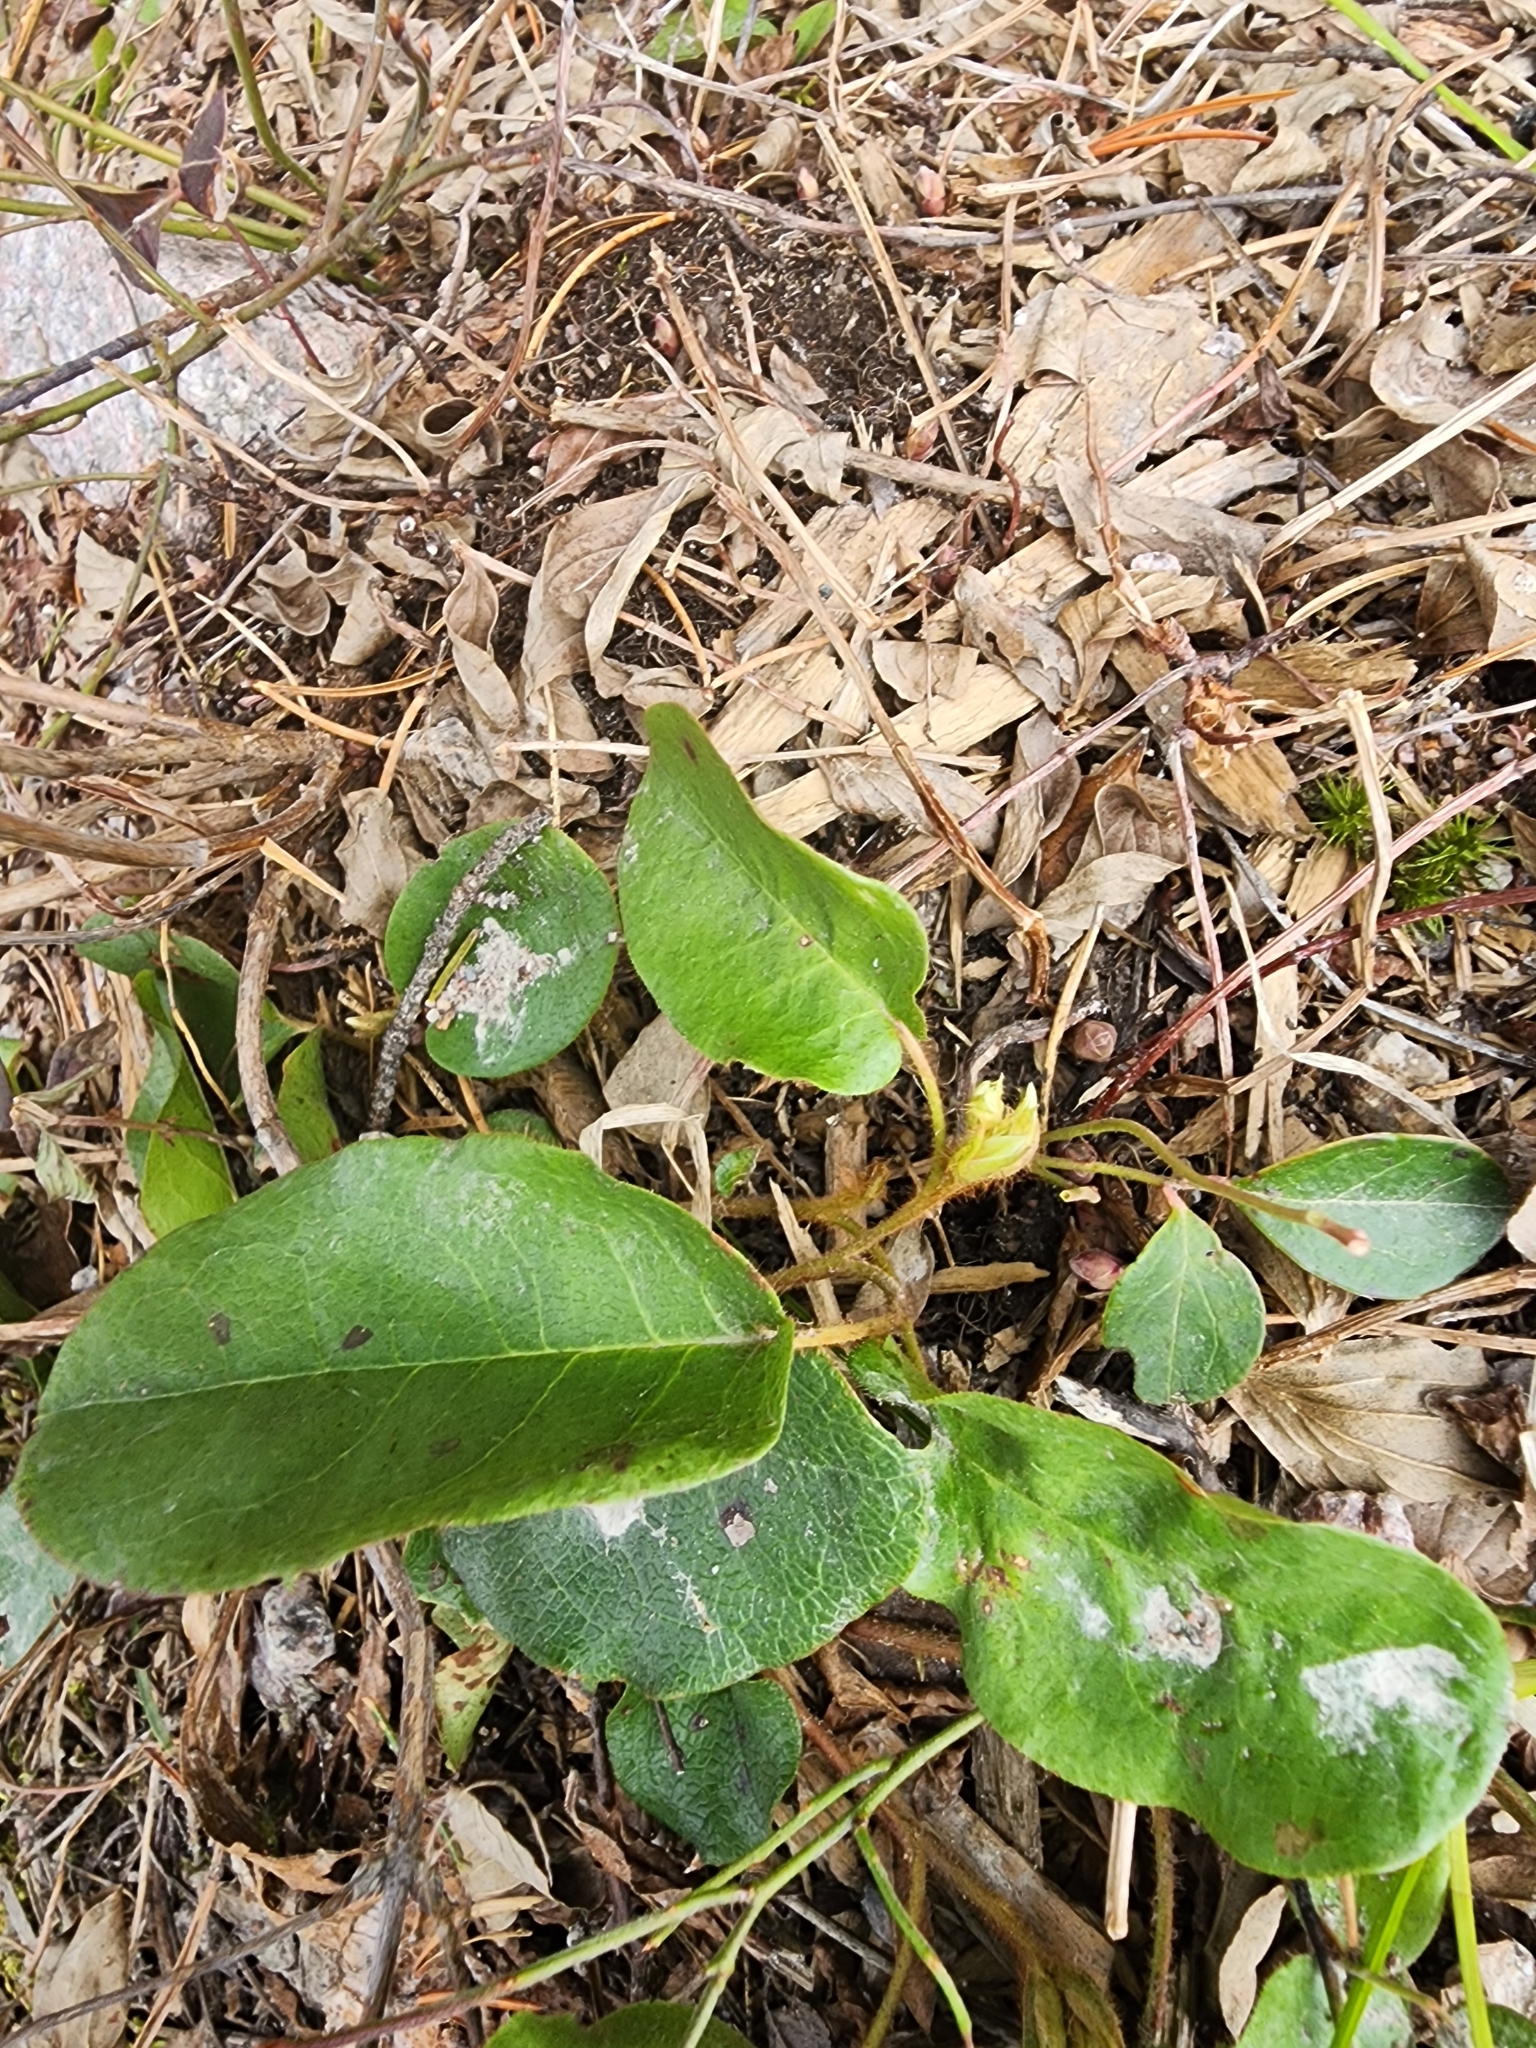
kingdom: Plantae
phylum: Tracheophyta
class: Magnoliopsida
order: Ericales
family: Ericaceae
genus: Epigaea
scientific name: Epigaea repens
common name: Gravelroot
